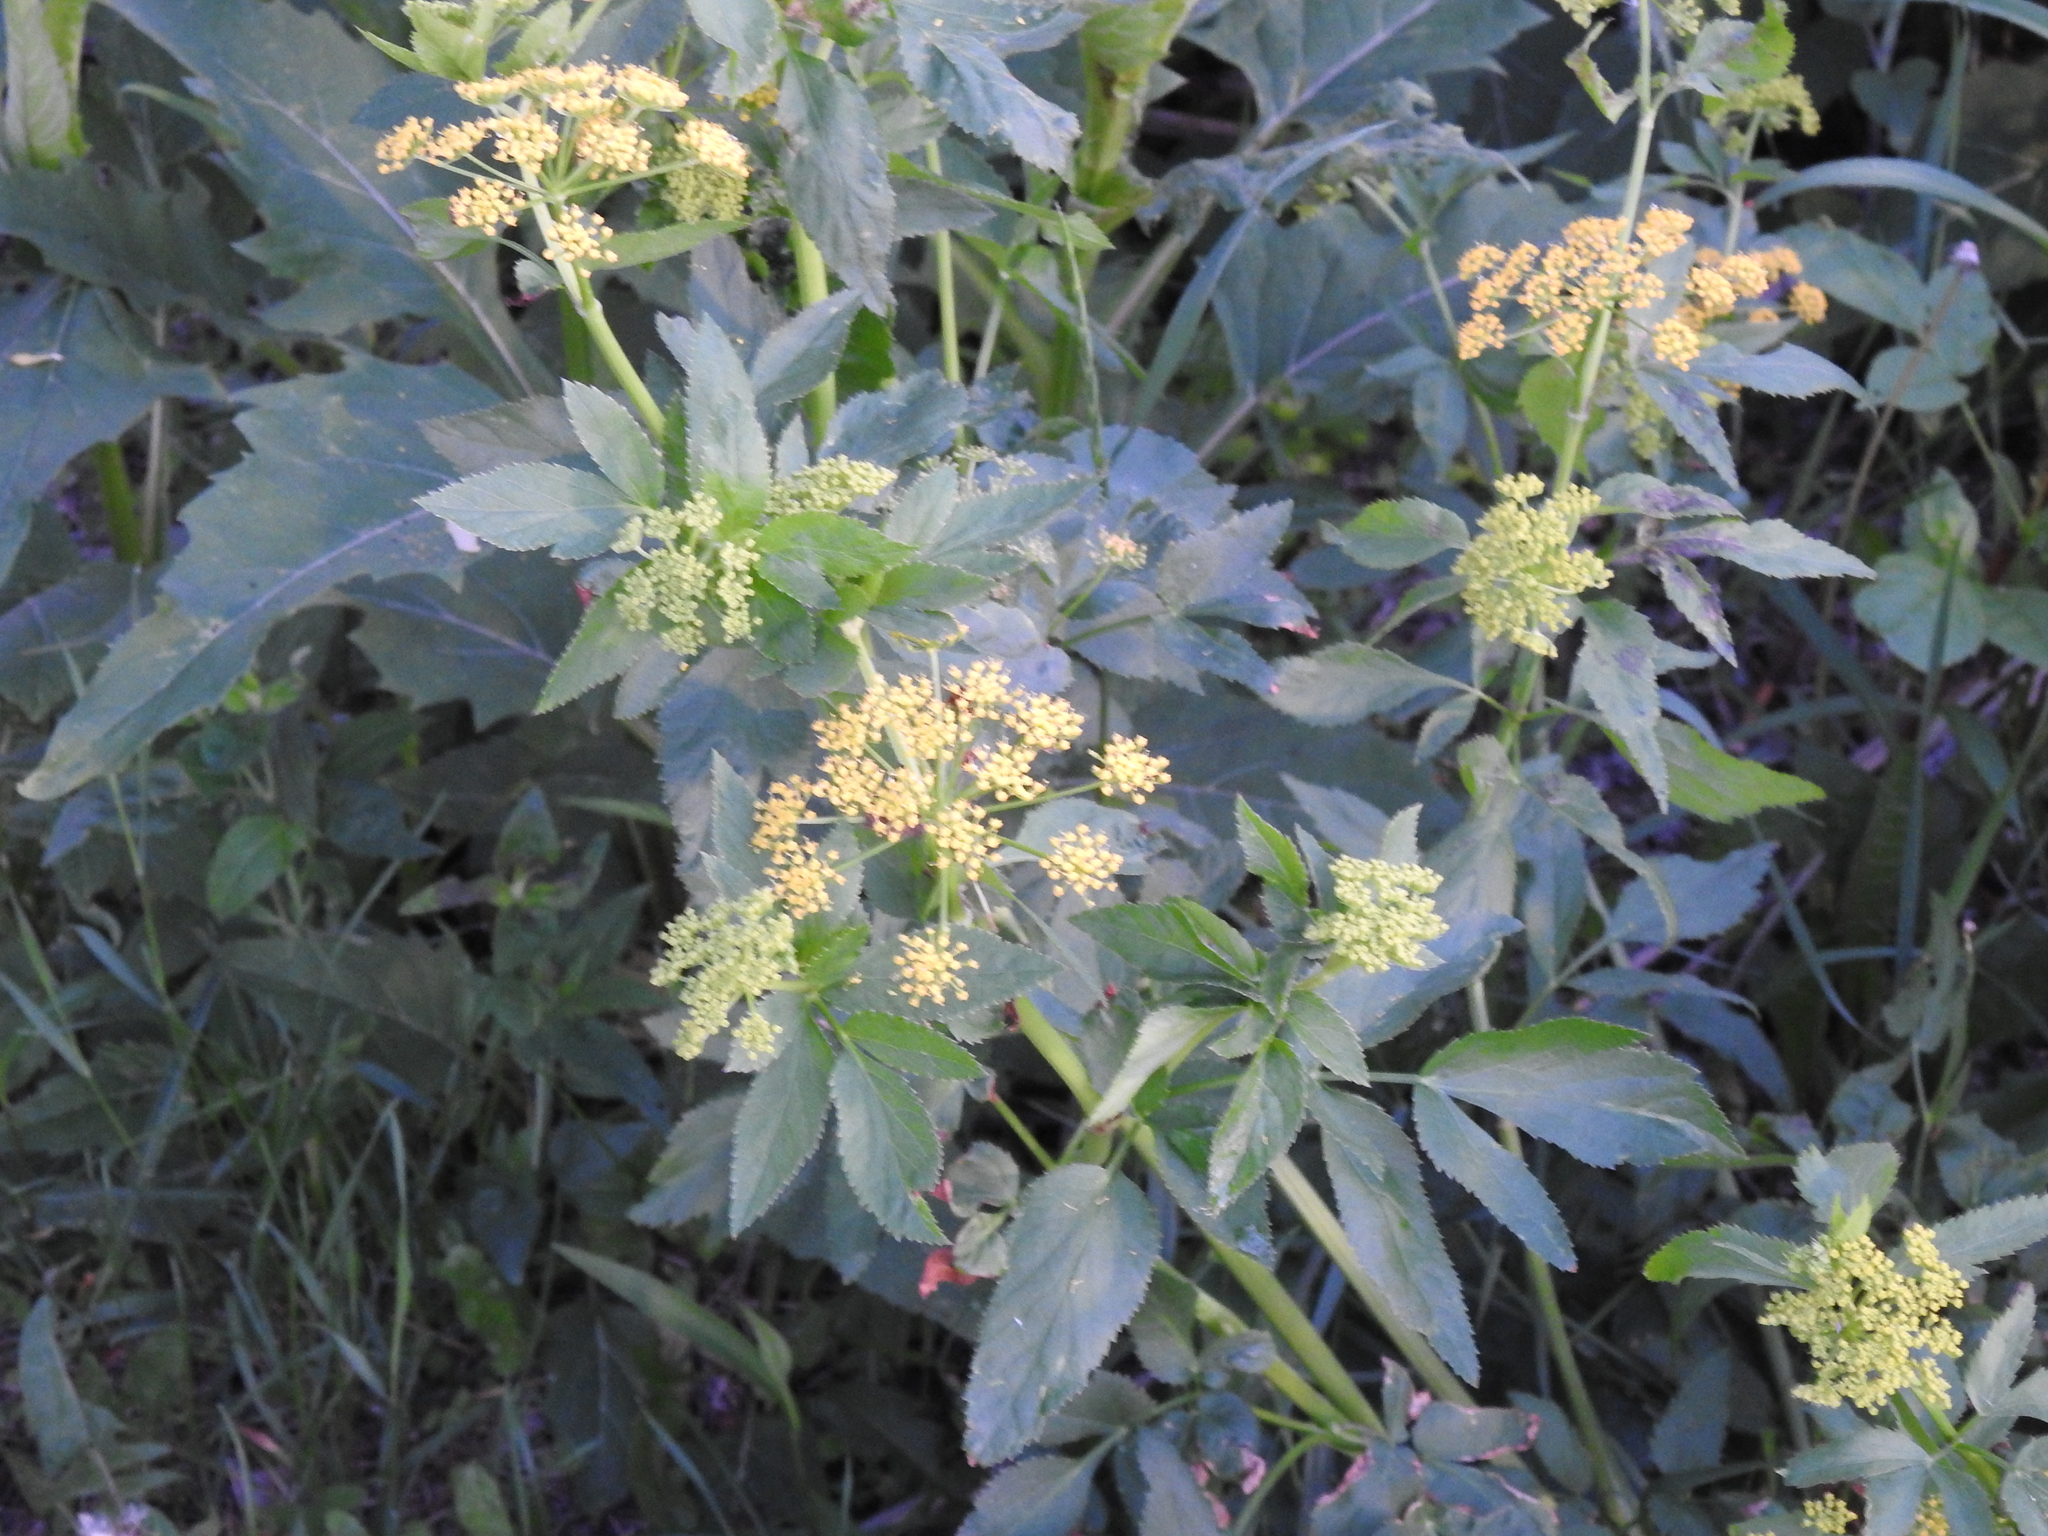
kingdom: Plantae
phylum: Tracheophyta
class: Magnoliopsida
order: Apiales
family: Apiaceae
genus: Zizia
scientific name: Zizia aurea
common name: Golden alexanders
